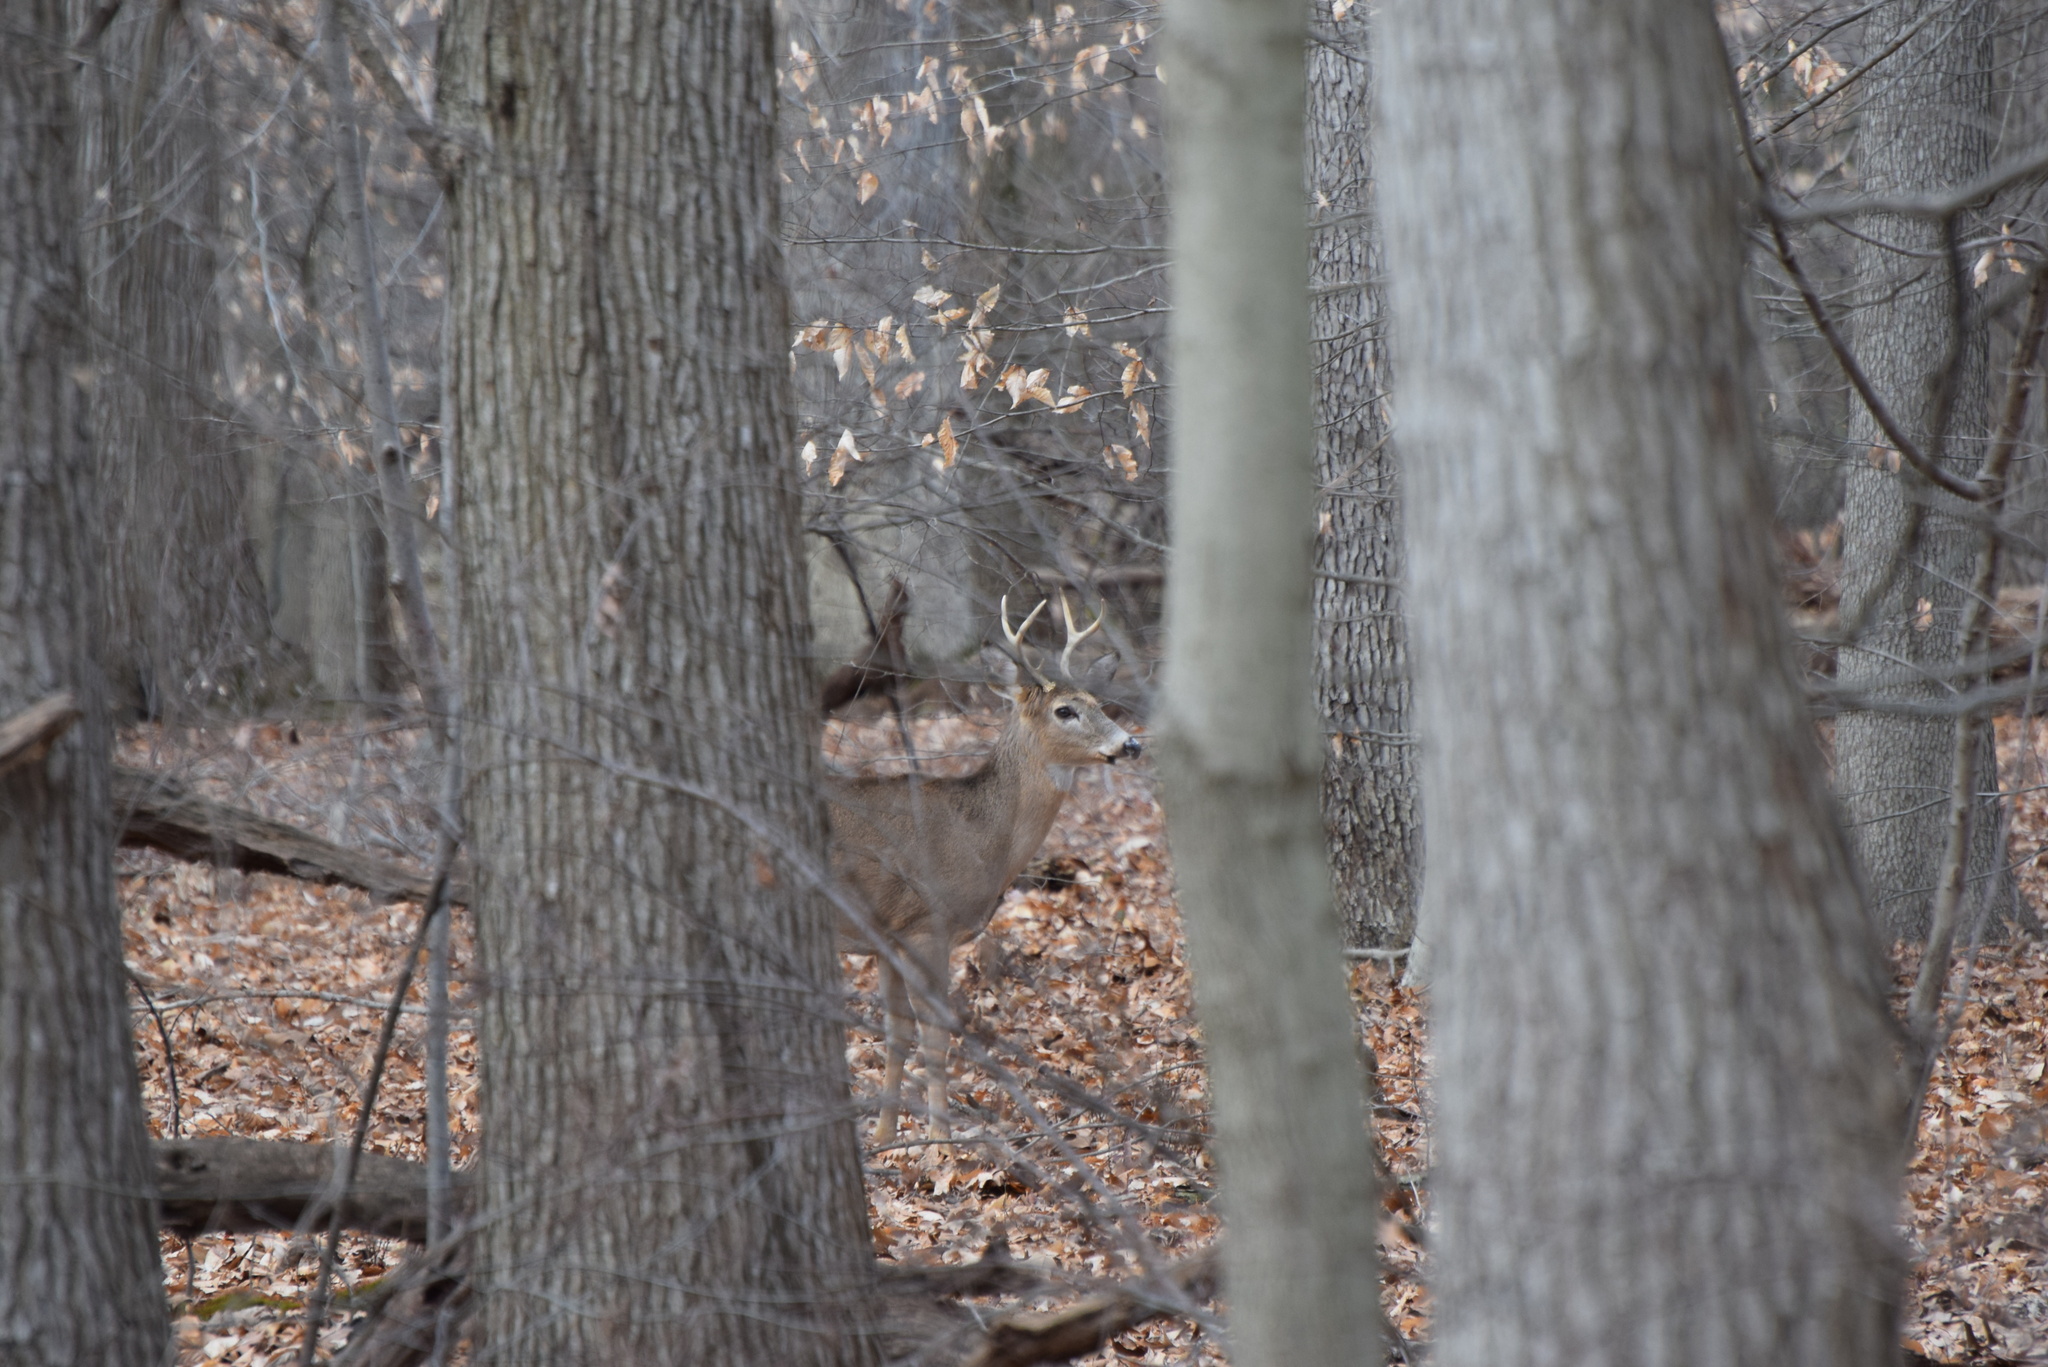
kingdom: Animalia
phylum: Chordata
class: Mammalia
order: Artiodactyla
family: Cervidae
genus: Odocoileus
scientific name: Odocoileus virginianus
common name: White-tailed deer
